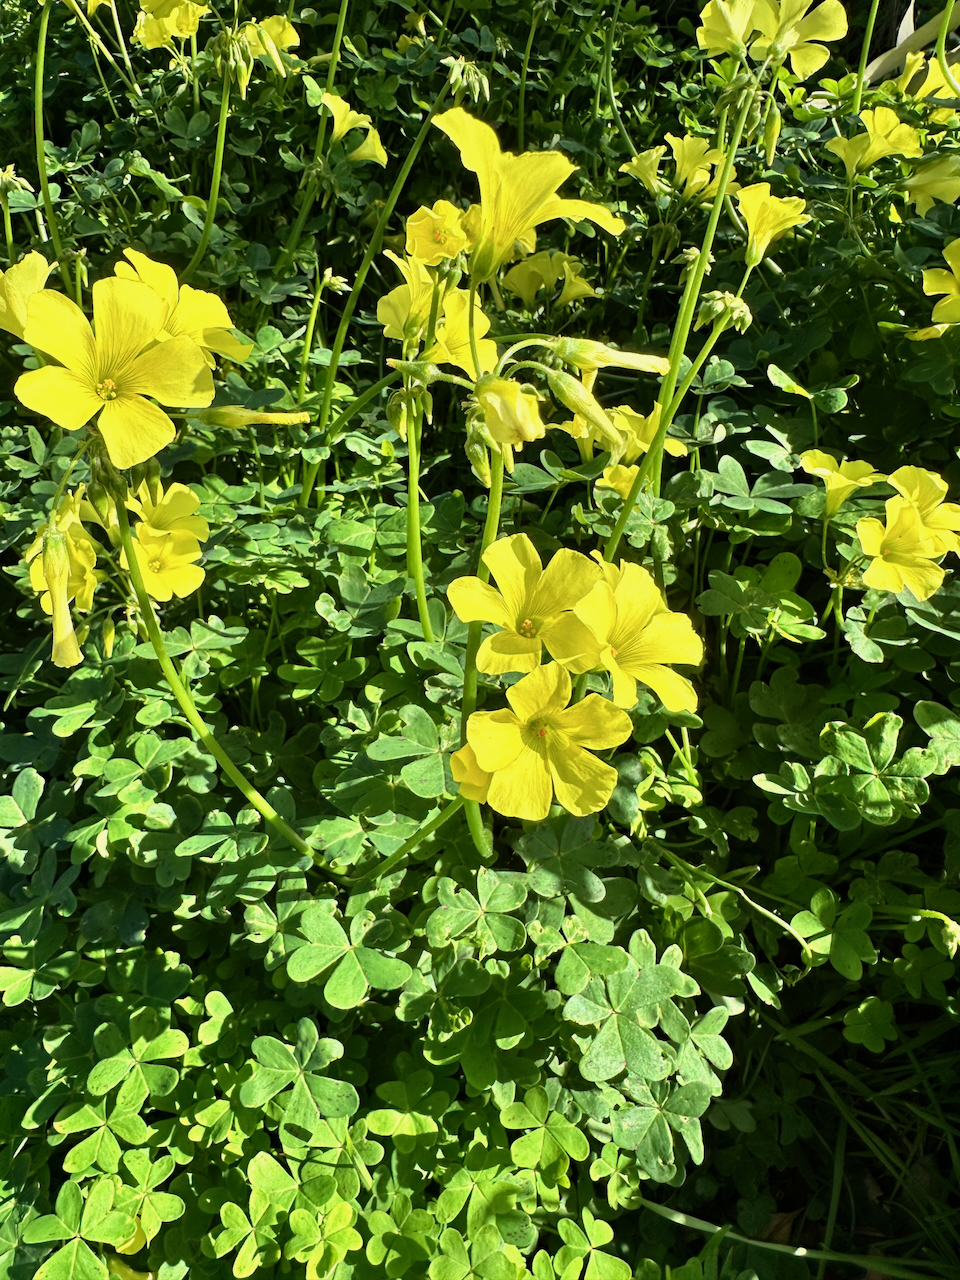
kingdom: Plantae
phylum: Tracheophyta
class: Magnoliopsida
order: Oxalidales
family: Oxalidaceae
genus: Oxalis
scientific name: Oxalis pes-caprae
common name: Bermuda-buttercup
